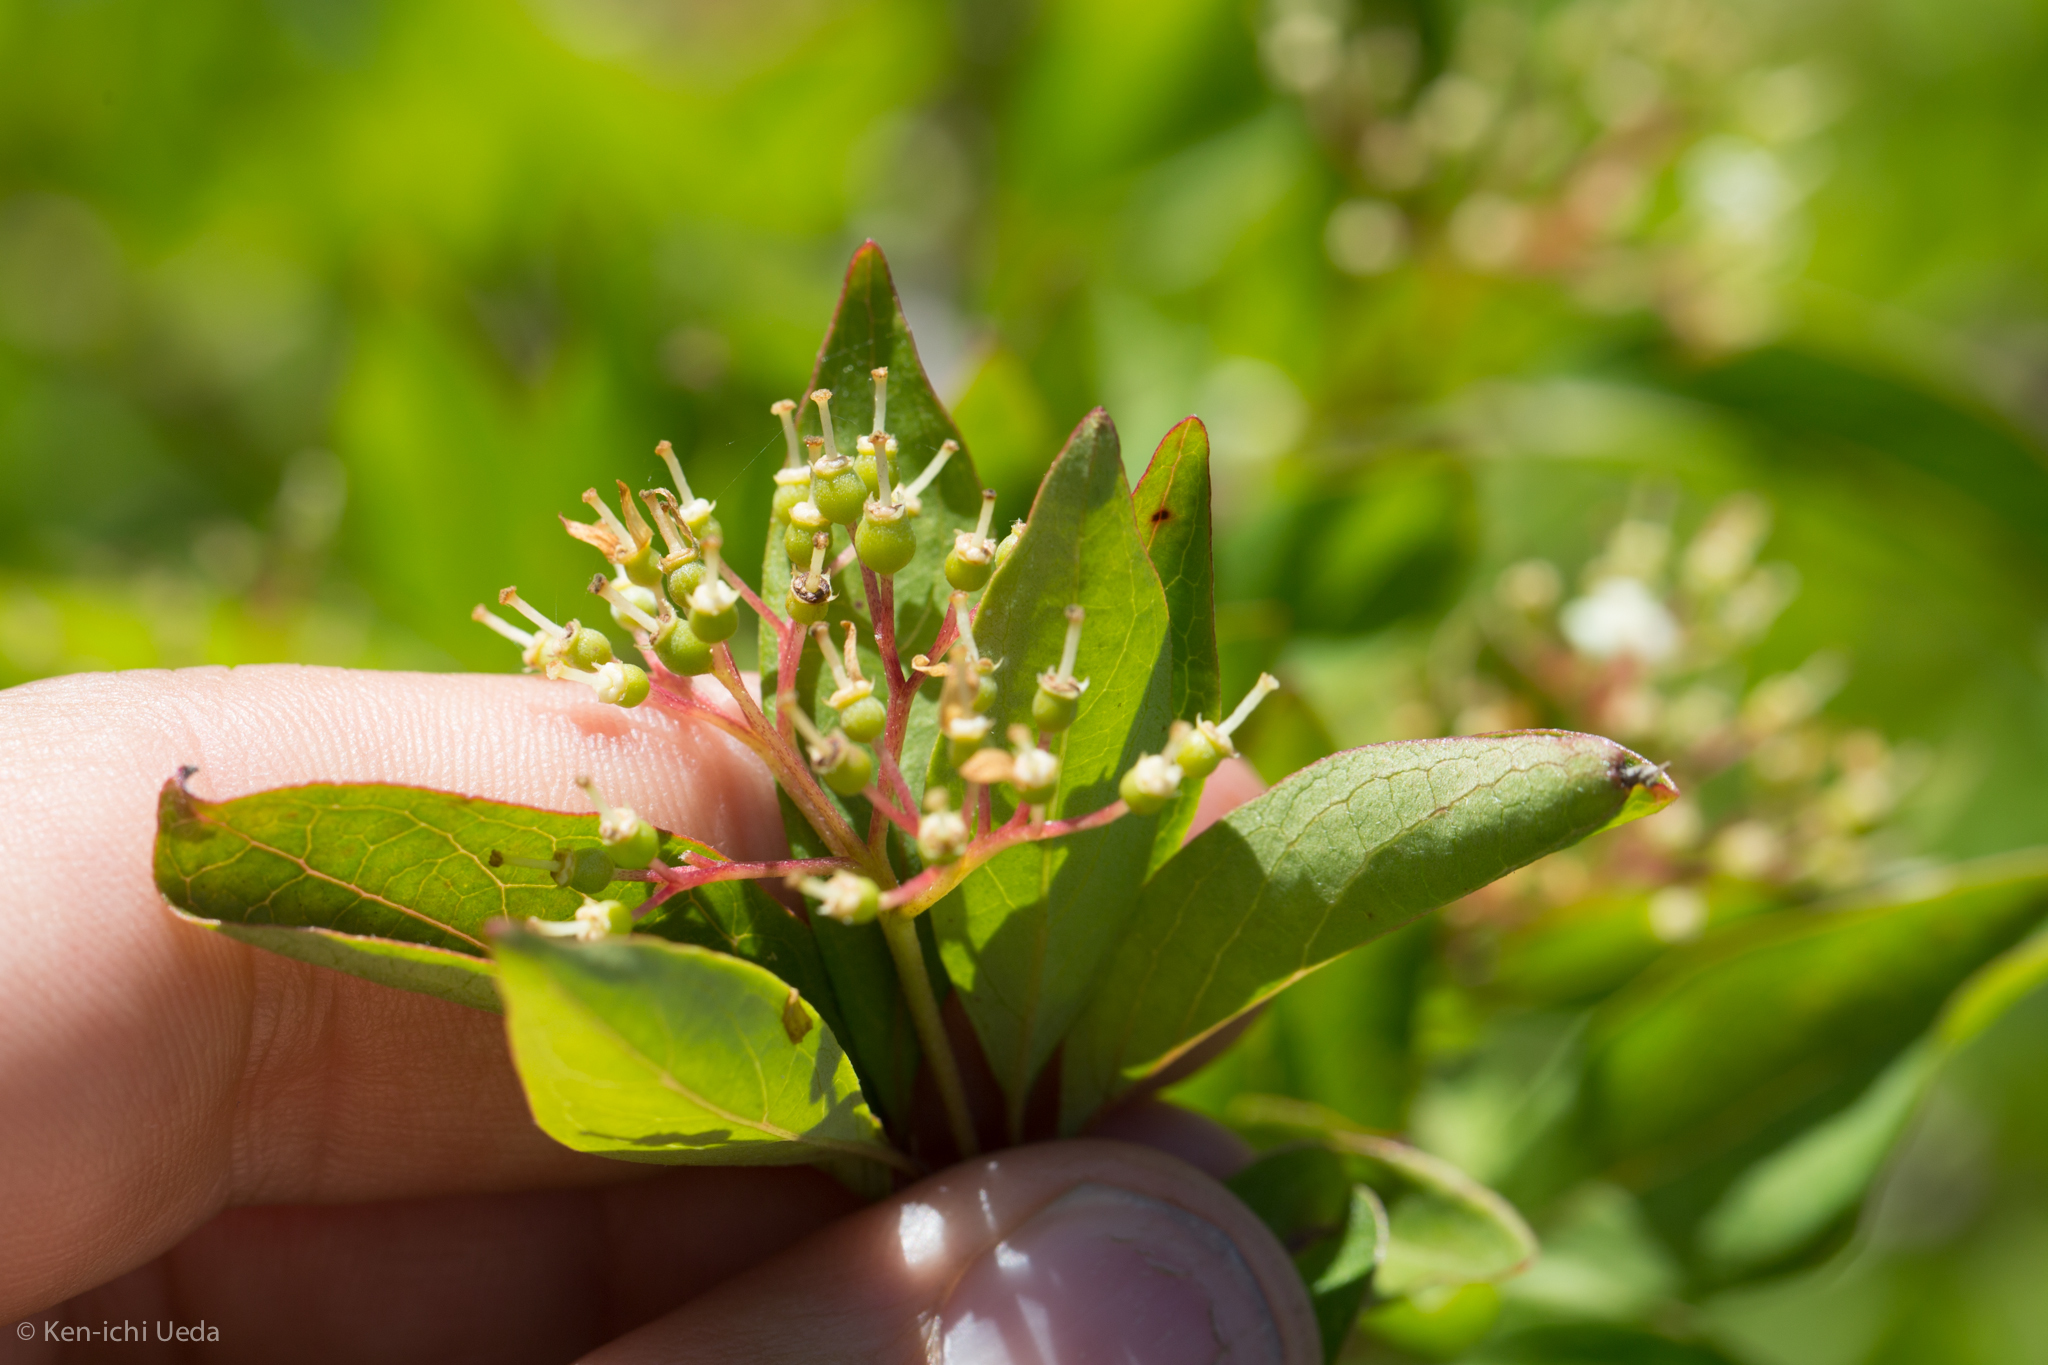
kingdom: Plantae
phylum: Tracheophyta
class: Magnoliopsida
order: Cornales
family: Cornaceae
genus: Cornus
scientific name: Cornus glabrata
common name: Smooth dogwood
